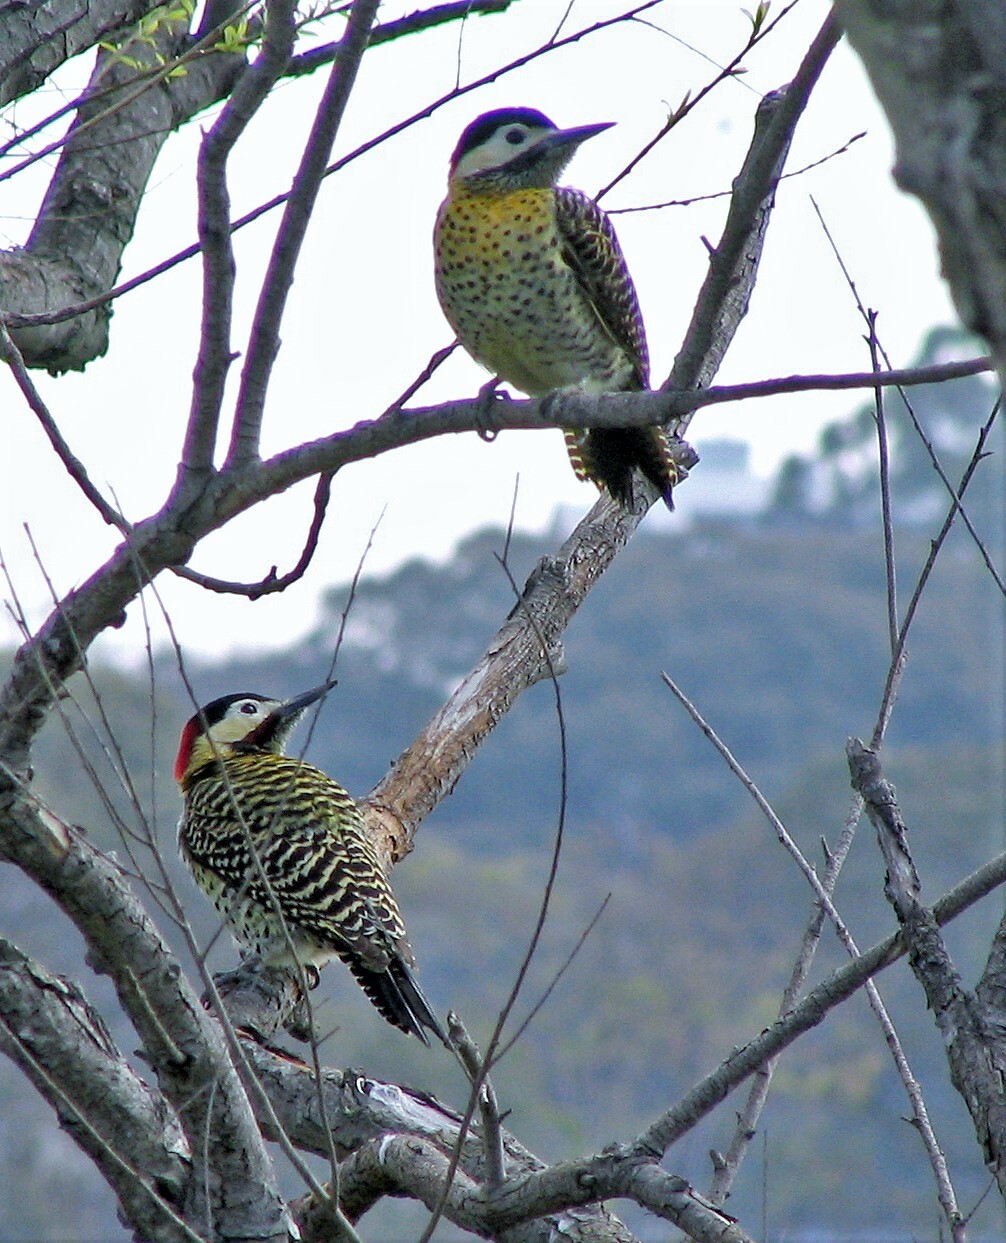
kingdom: Animalia
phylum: Chordata
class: Aves
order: Piciformes
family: Picidae
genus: Colaptes
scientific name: Colaptes melanochloros
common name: Green-barred woodpecker
